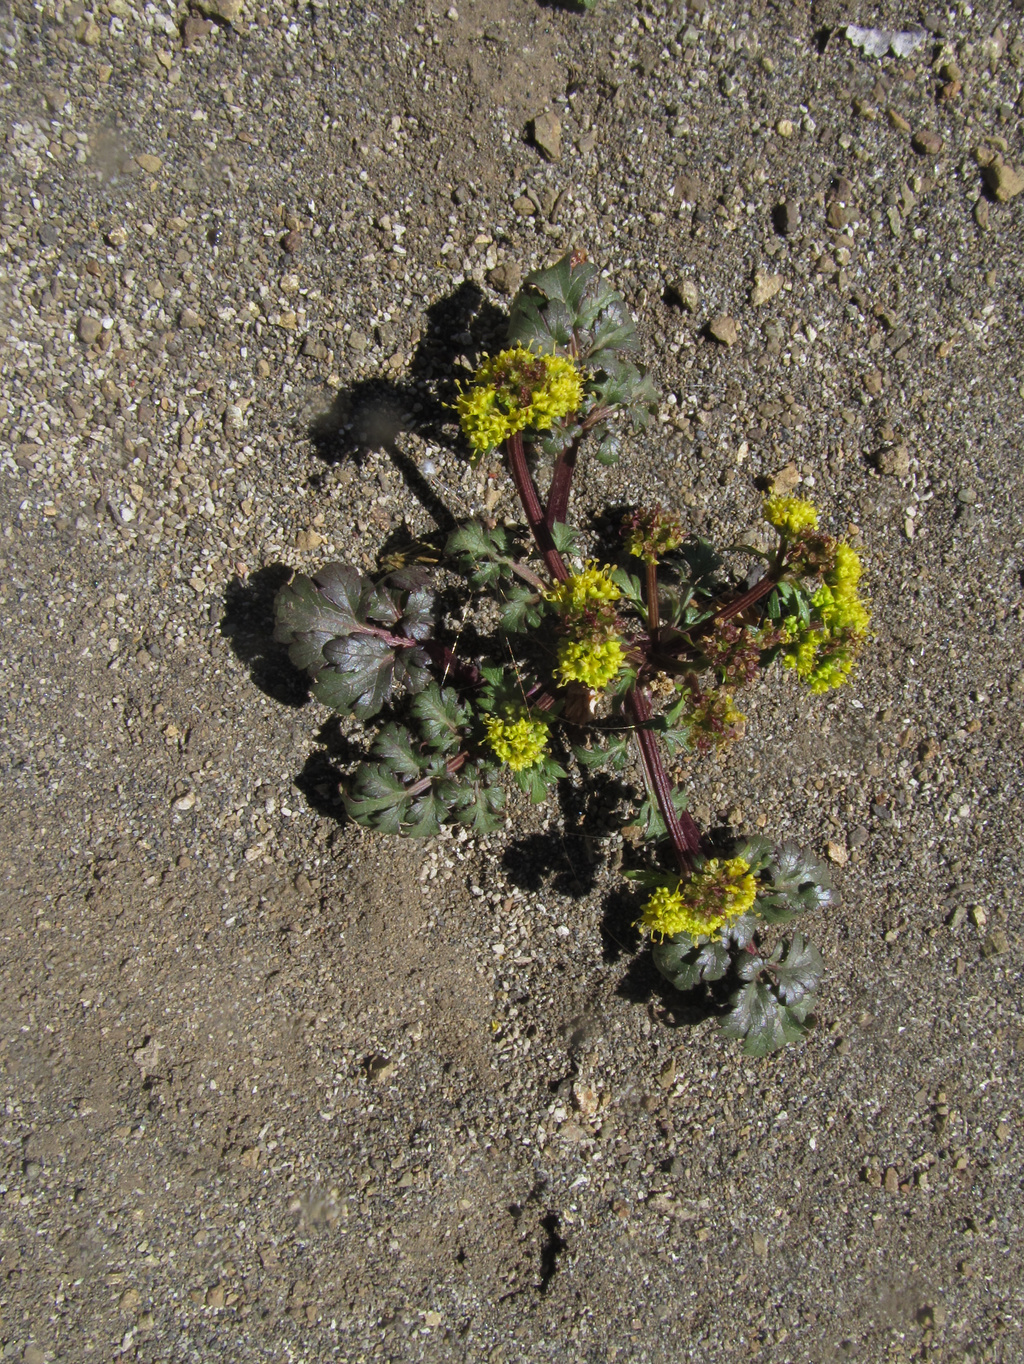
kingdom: Plantae
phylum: Tracheophyta
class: Magnoliopsida
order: Apiales
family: Apiaceae
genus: Sanicula
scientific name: Sanicula graveolens
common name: Sierra sanicle
